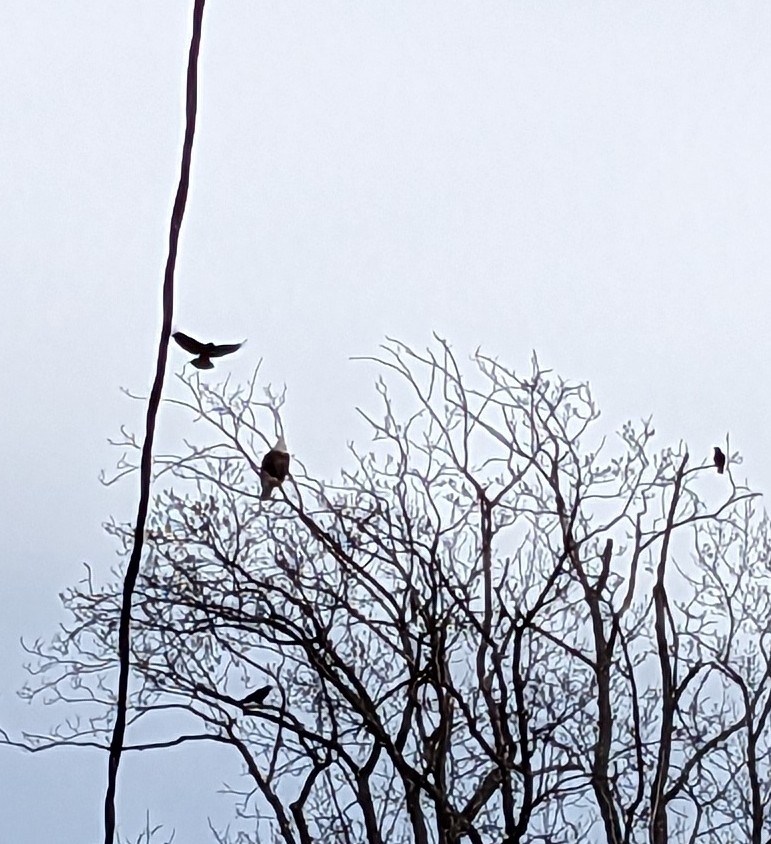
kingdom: Animalia
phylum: Chordata
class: Aves
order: Accipitriformes
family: Accipitridae
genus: Haliaeetus
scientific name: Haliaeetus leucocephalus
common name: Bald eagle
